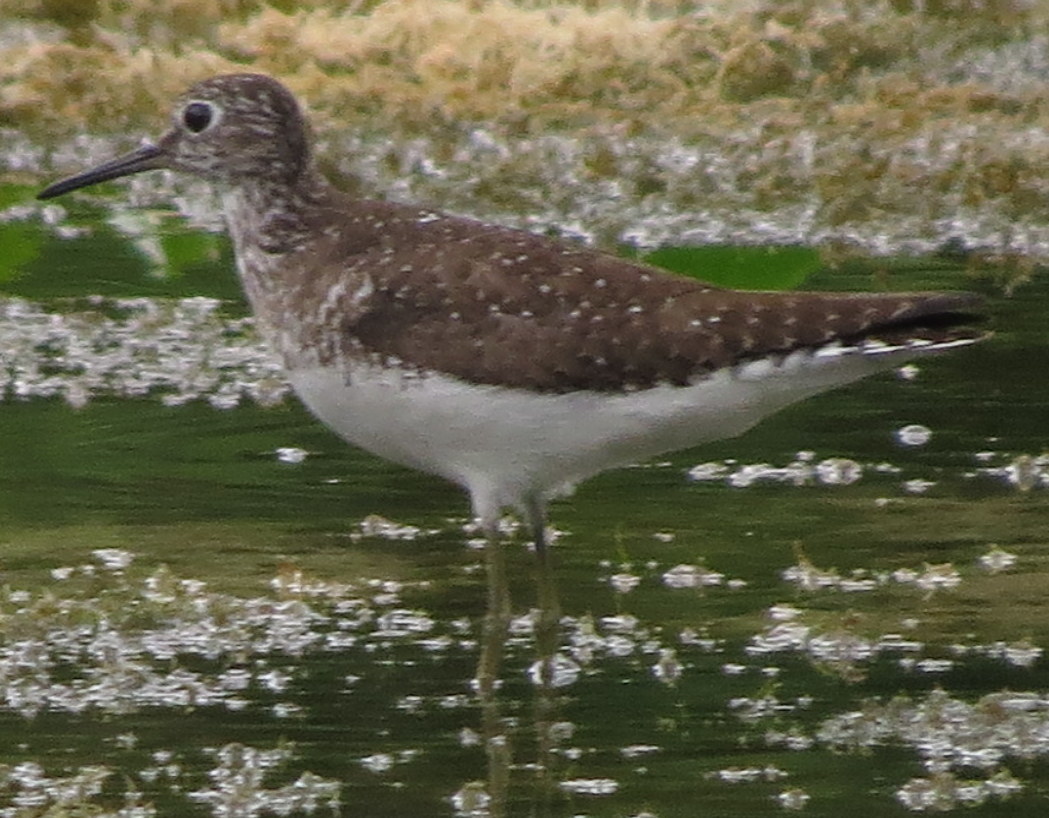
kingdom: Animalia
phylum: Chordata
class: Aves
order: Charadriiformes
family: Scolopacidae
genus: Tringa
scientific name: Tringa solitaria
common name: Solitary sandpiper
